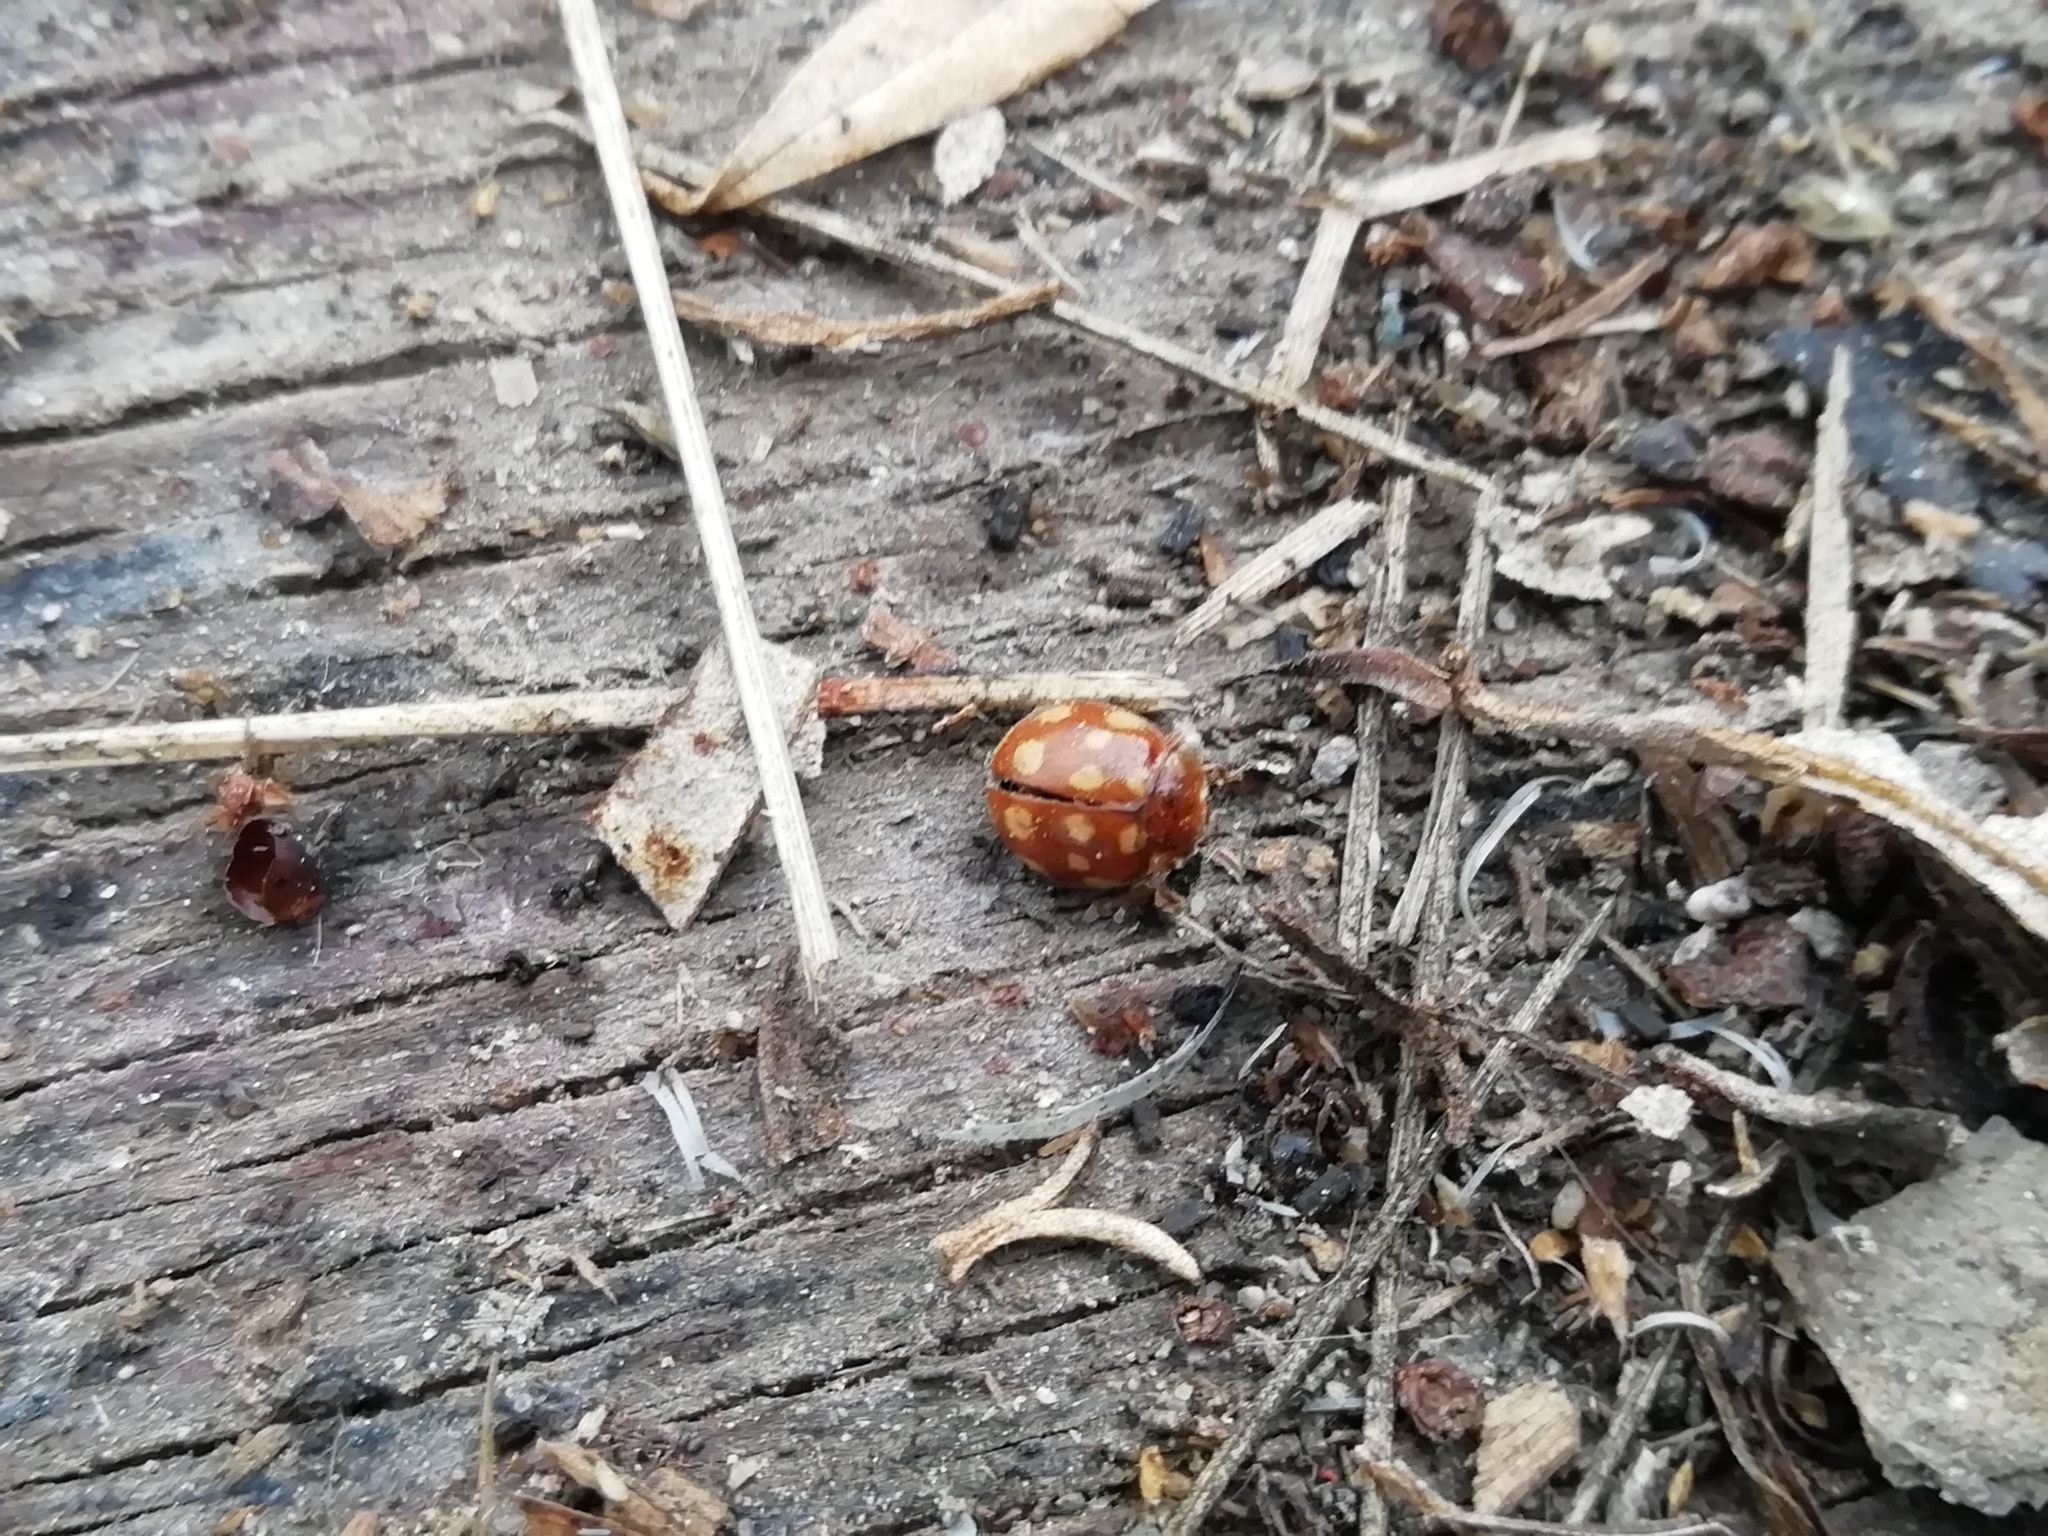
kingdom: Animalia
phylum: Arthropoda
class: Insecta
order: Coleoptera
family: Coccinellidae
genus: Calvia
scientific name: Calvia quatuordecimguttata
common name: Cream-spot ladybird
